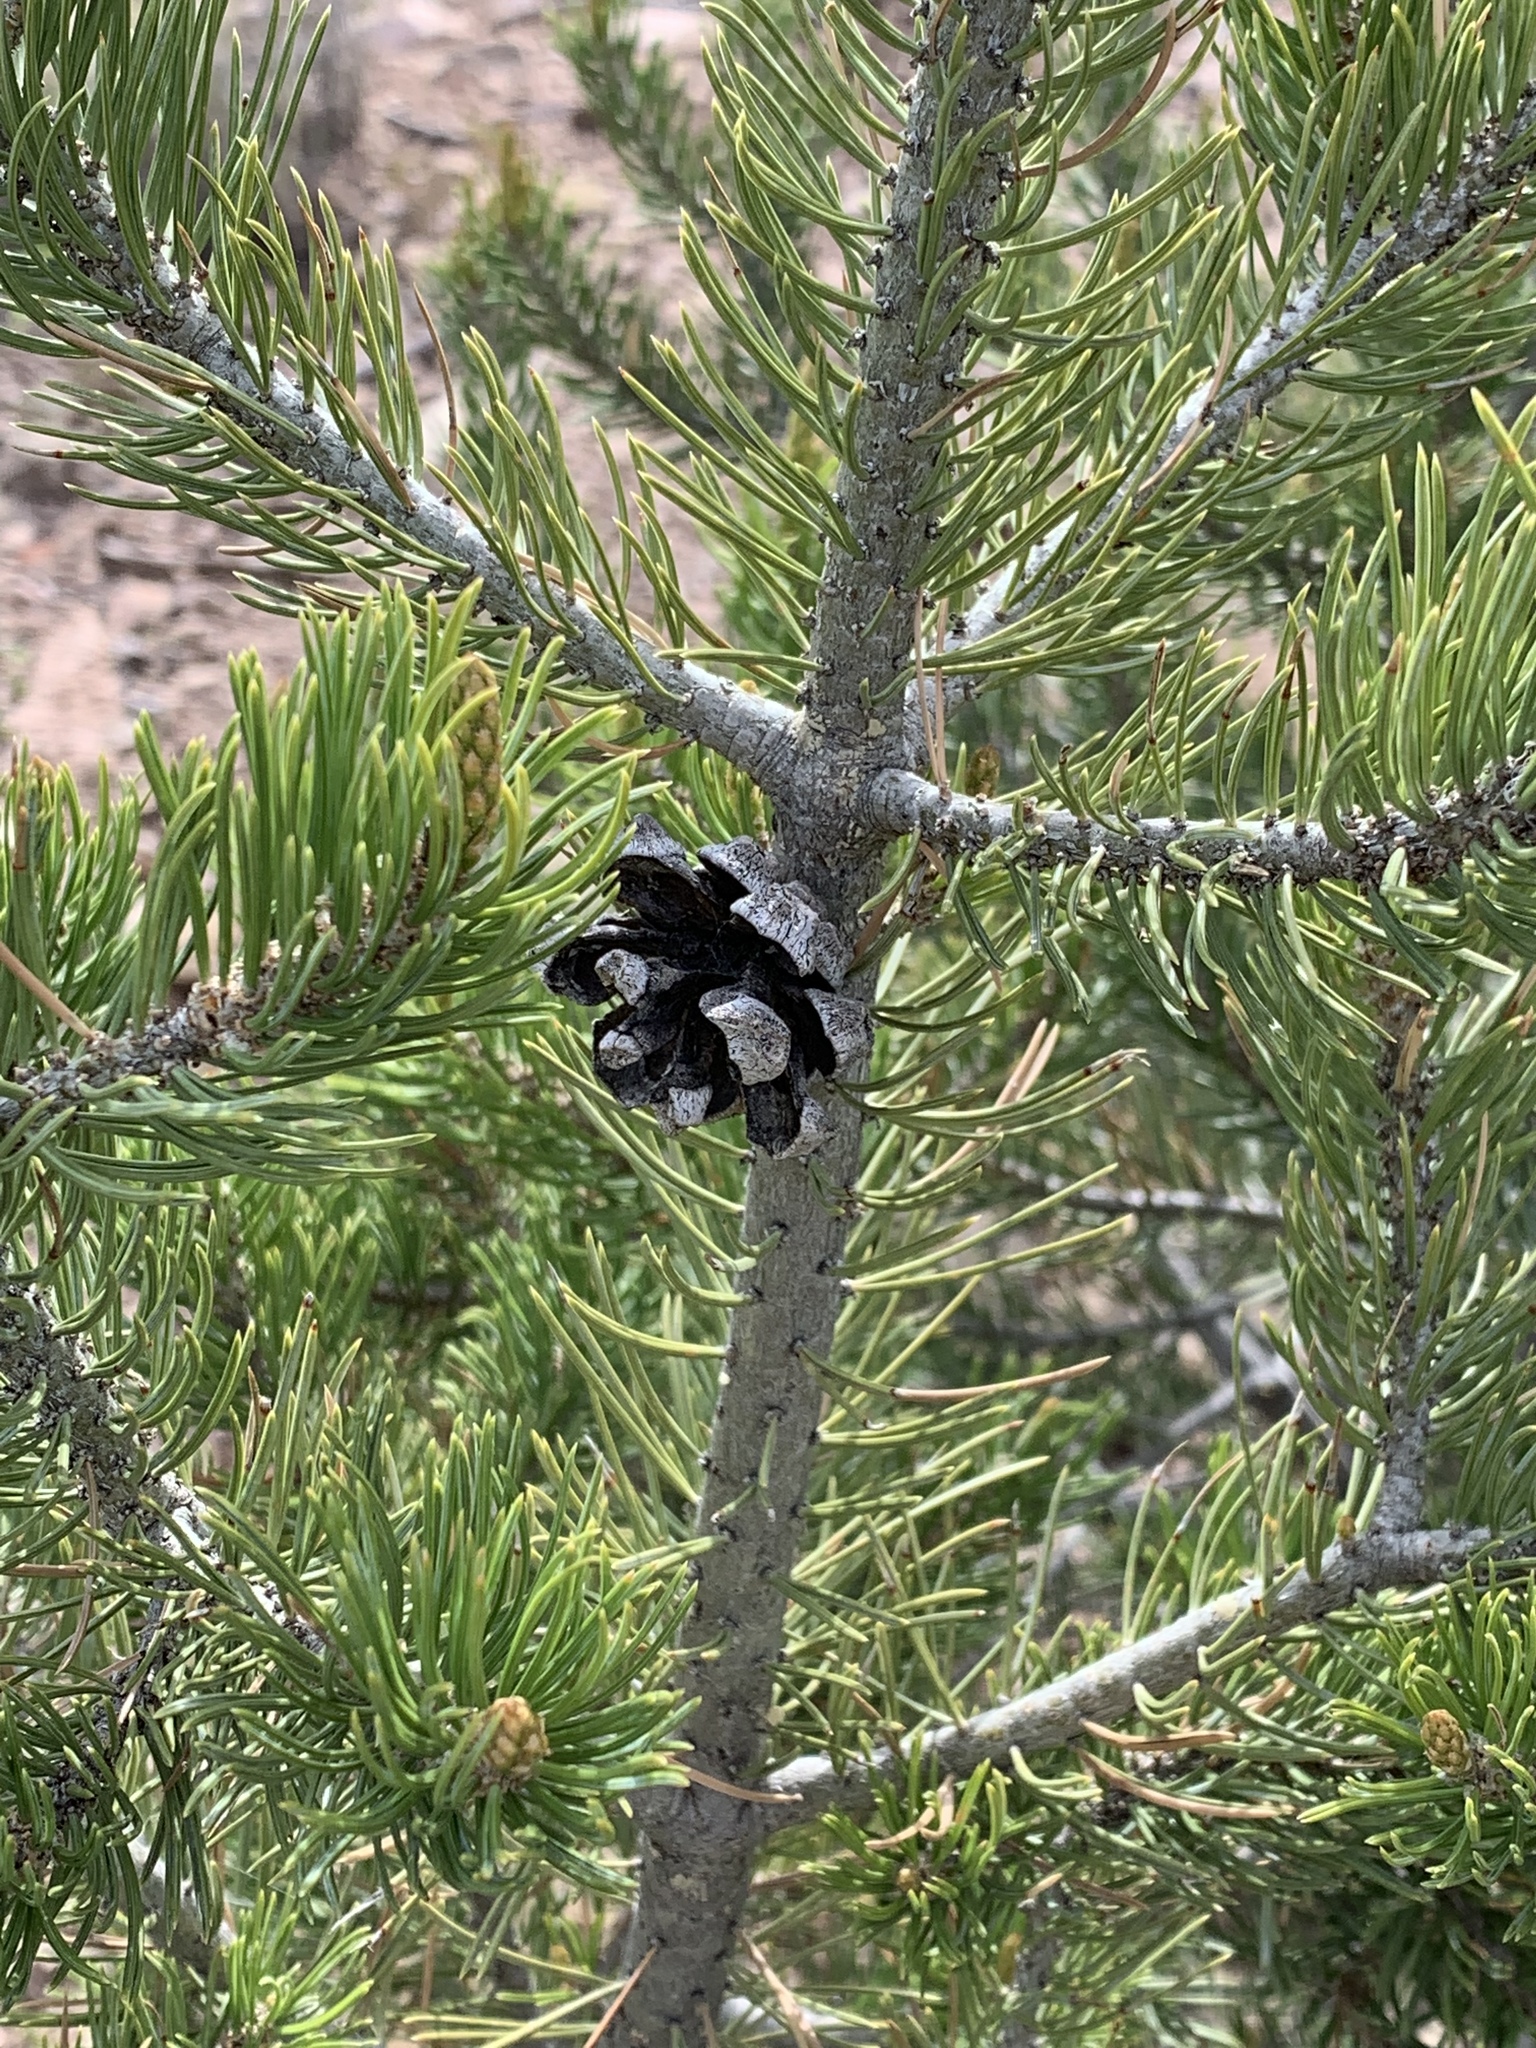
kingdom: Plantae
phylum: Tracheophyta
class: Pinopsida
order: Pinales
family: Pinaceae
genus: Pinus
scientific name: Pinus edulis
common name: Colorado pinyon
